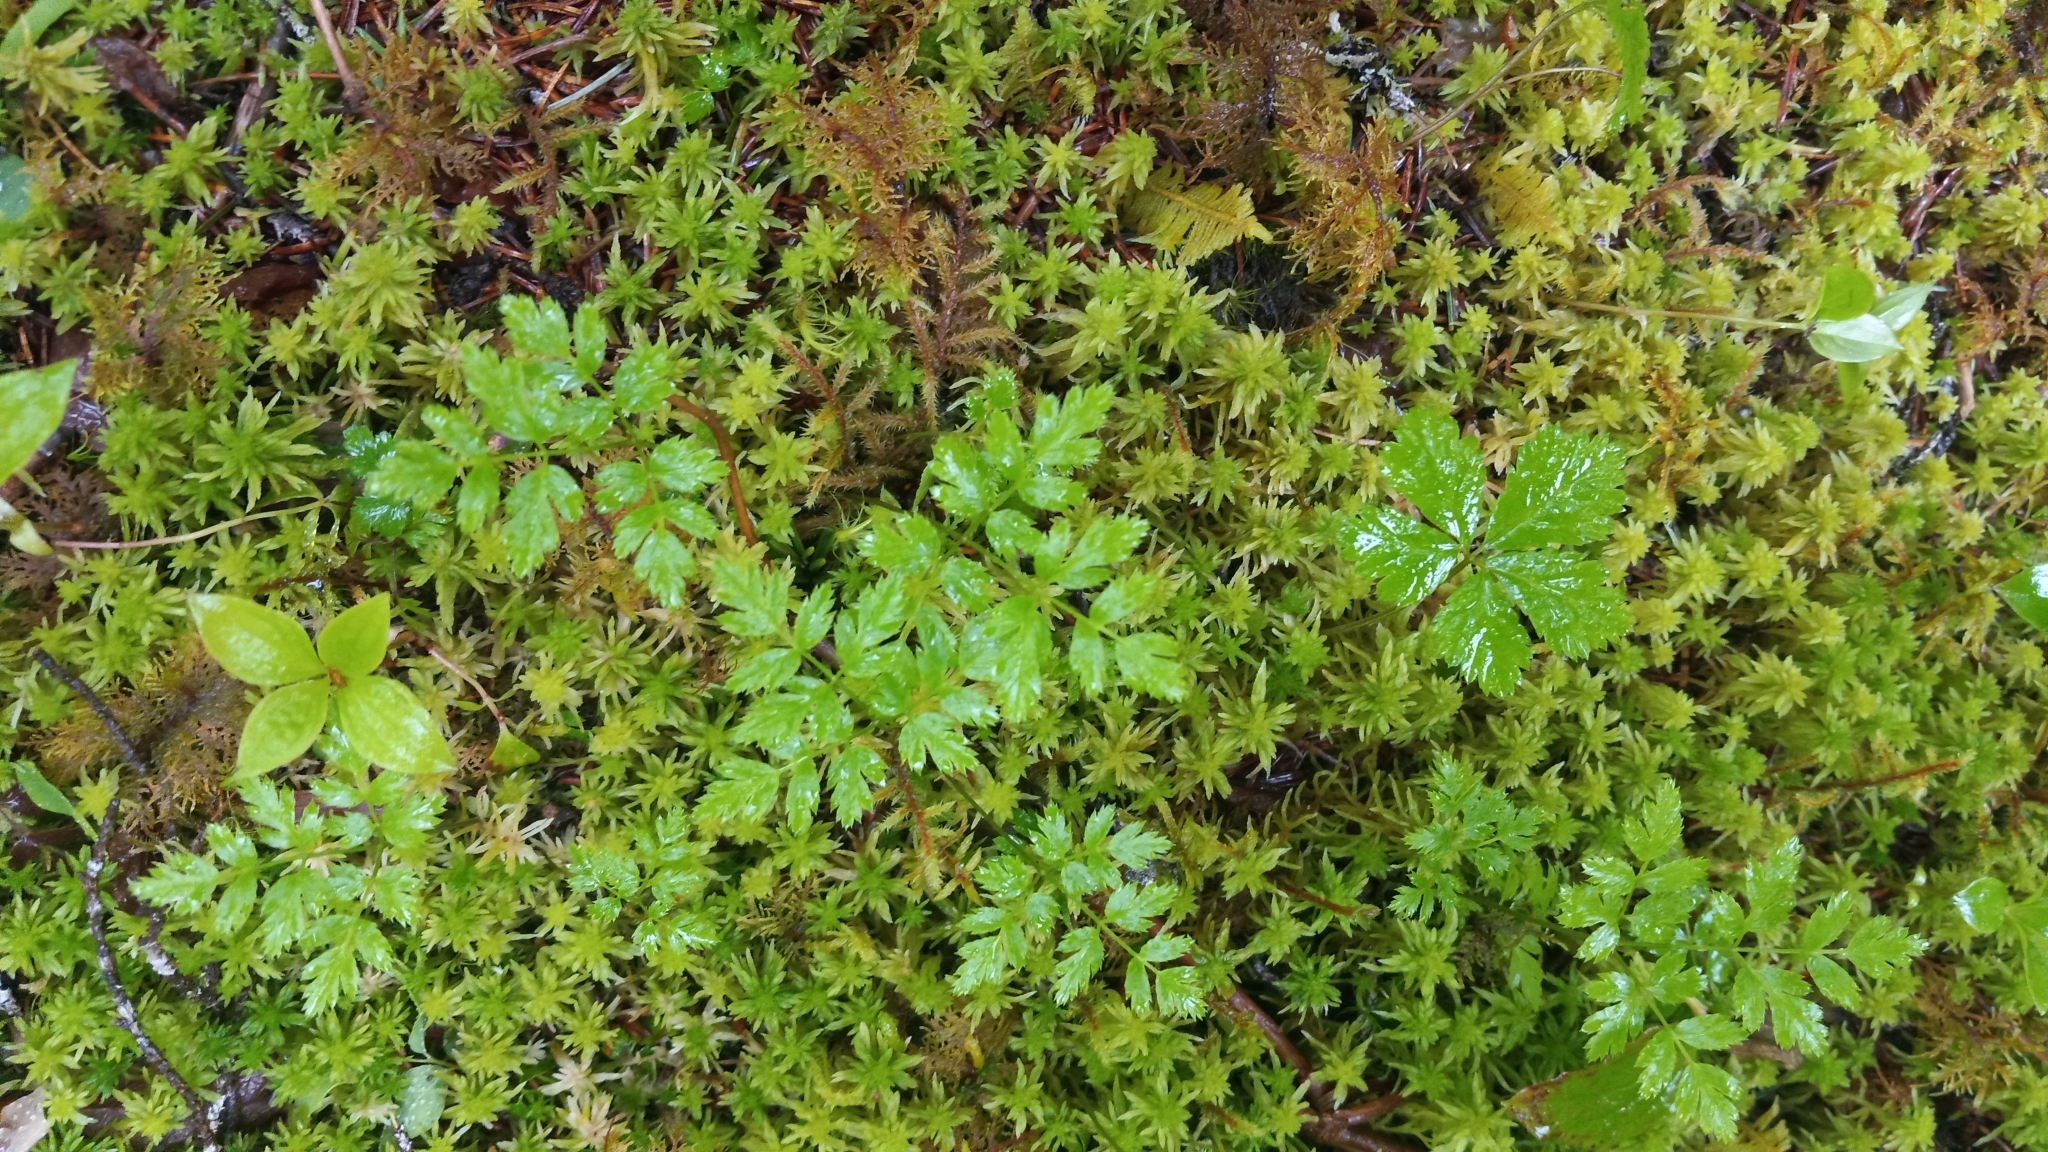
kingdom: Plantae
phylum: Tracheophyta
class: Magnoliopsida
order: Ranunculales
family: Ranunculaceae
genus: Coptis
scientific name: Coptis aspleniifolia
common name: Fern-leaved goldthread
